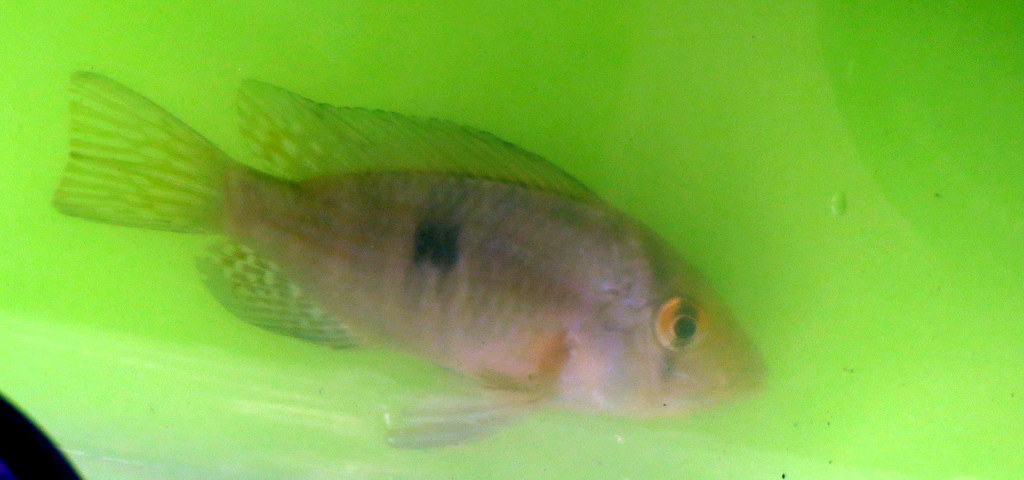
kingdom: Animalia
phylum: Chordata
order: Perciformes
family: Cichlidae
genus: Gymnogeophagus
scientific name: Gymnogeophagus meridionalis
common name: Earth eater
